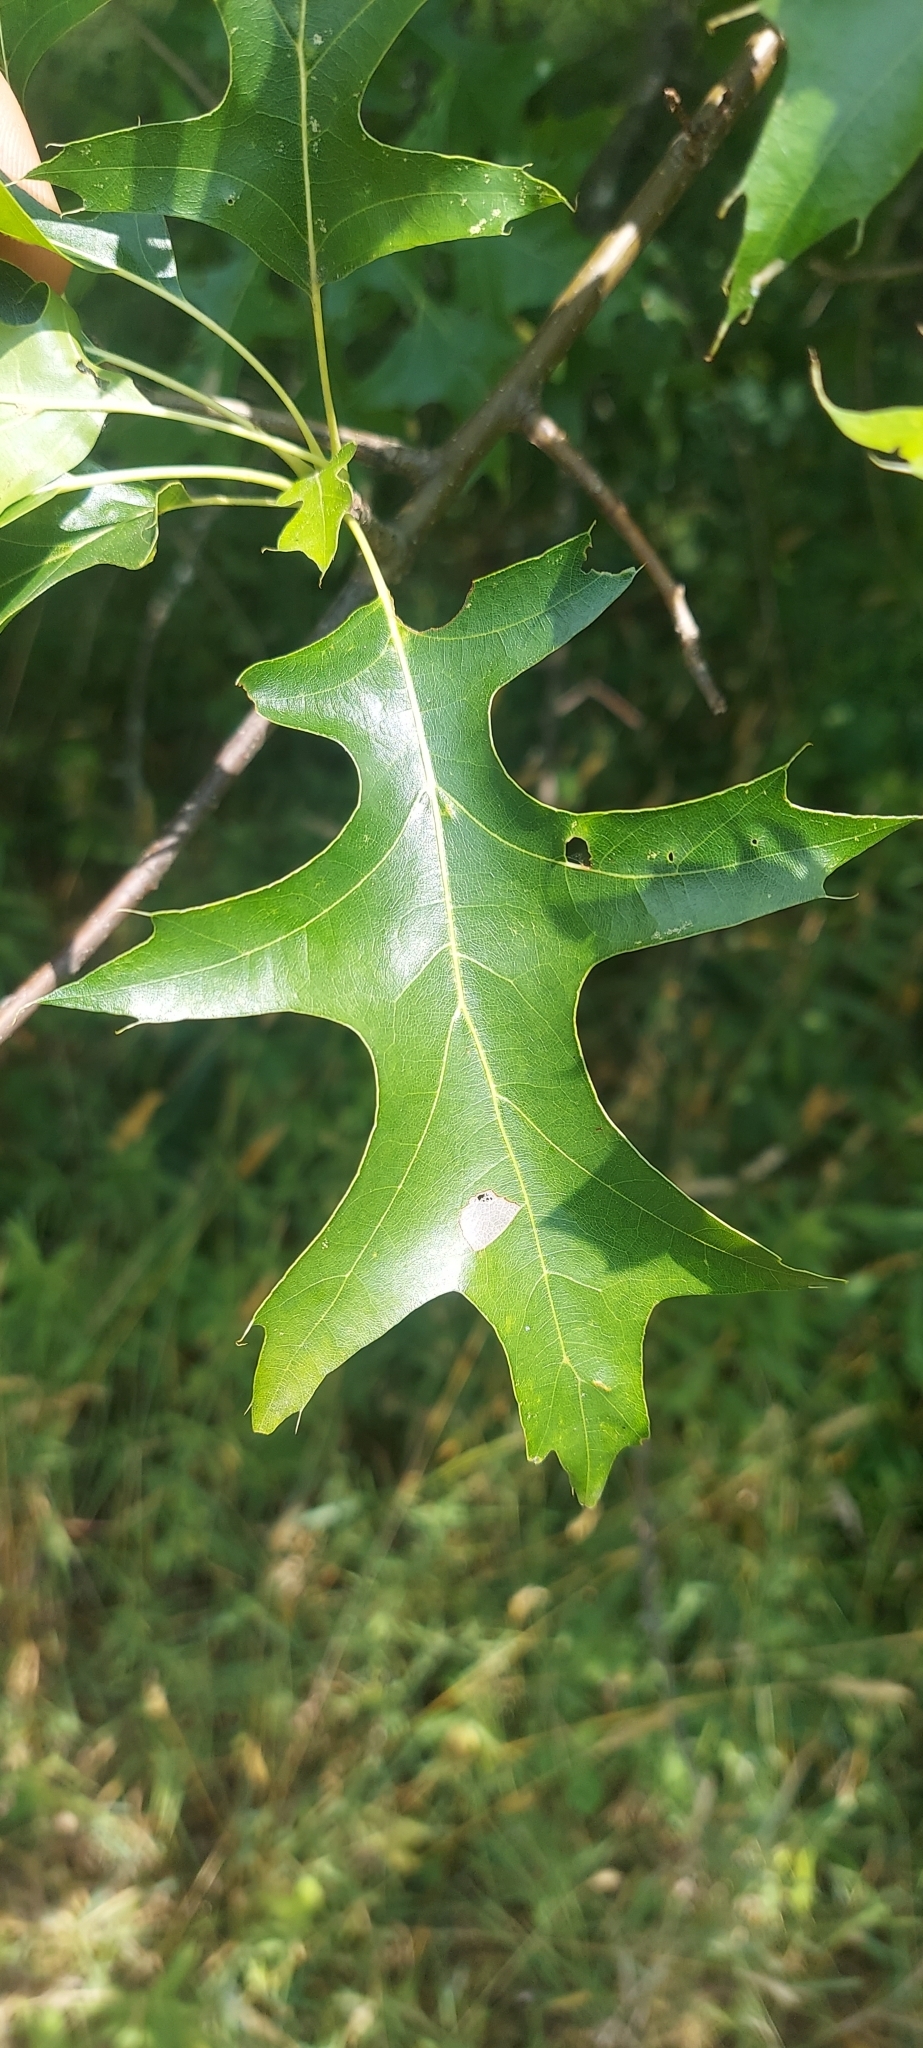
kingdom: Plantae
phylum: Tracheophyta
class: Magnoliopsida
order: Fagales
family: Fagaceae
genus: Quercus
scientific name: Quercus palustris
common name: Pin oak
